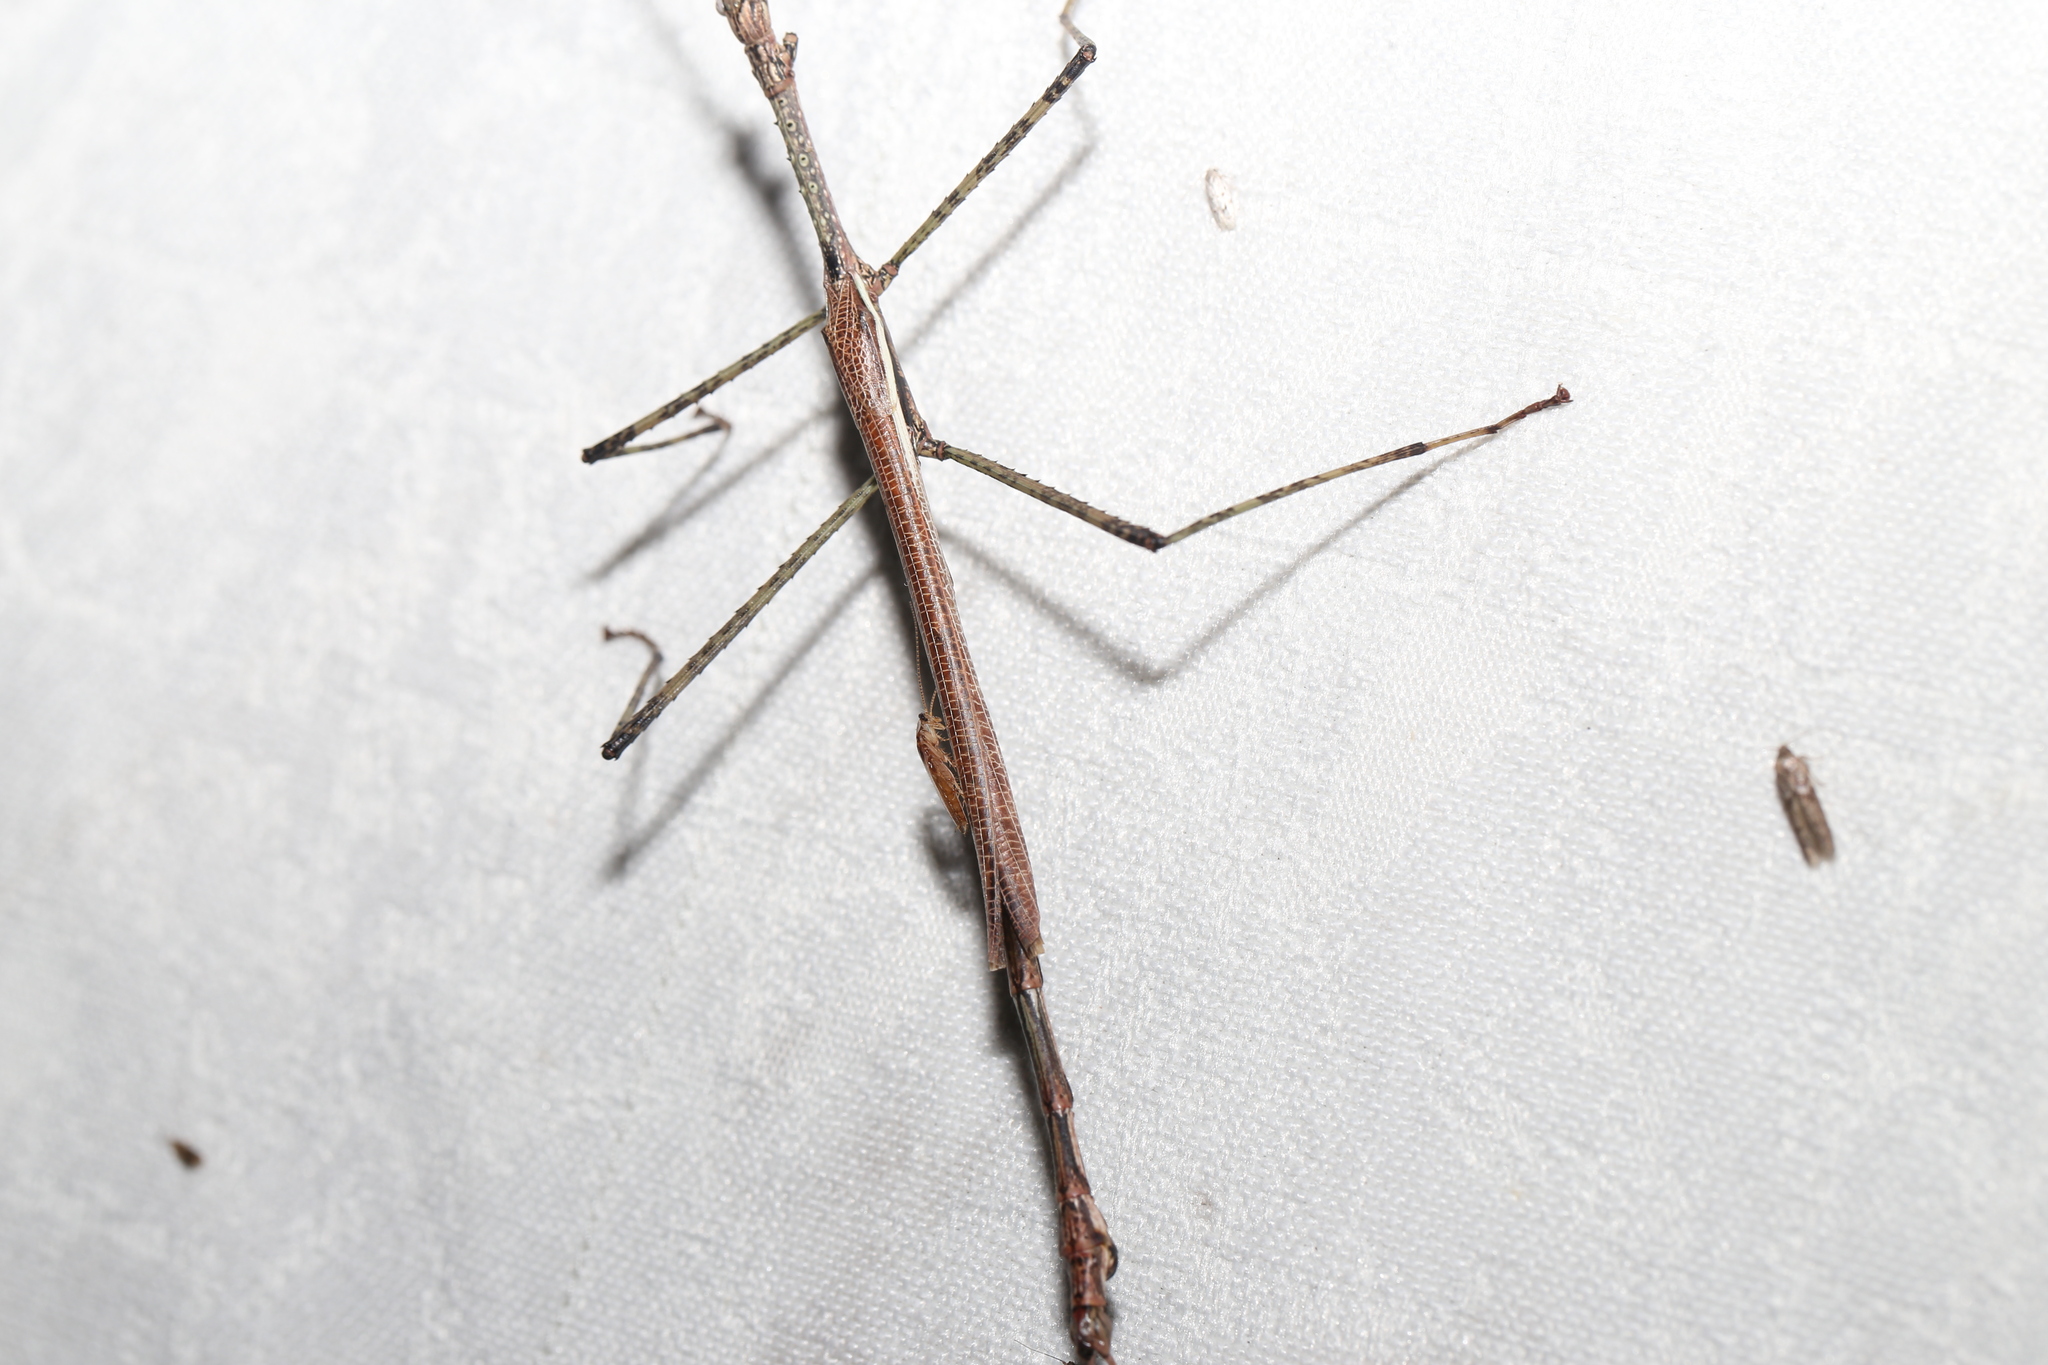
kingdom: Animalia
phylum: Arthropoda
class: Insecta
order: Phasmida
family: Phasmatidae
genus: Anchiale
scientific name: Anchiale austrotessulata
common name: Tessellated stick-insect
